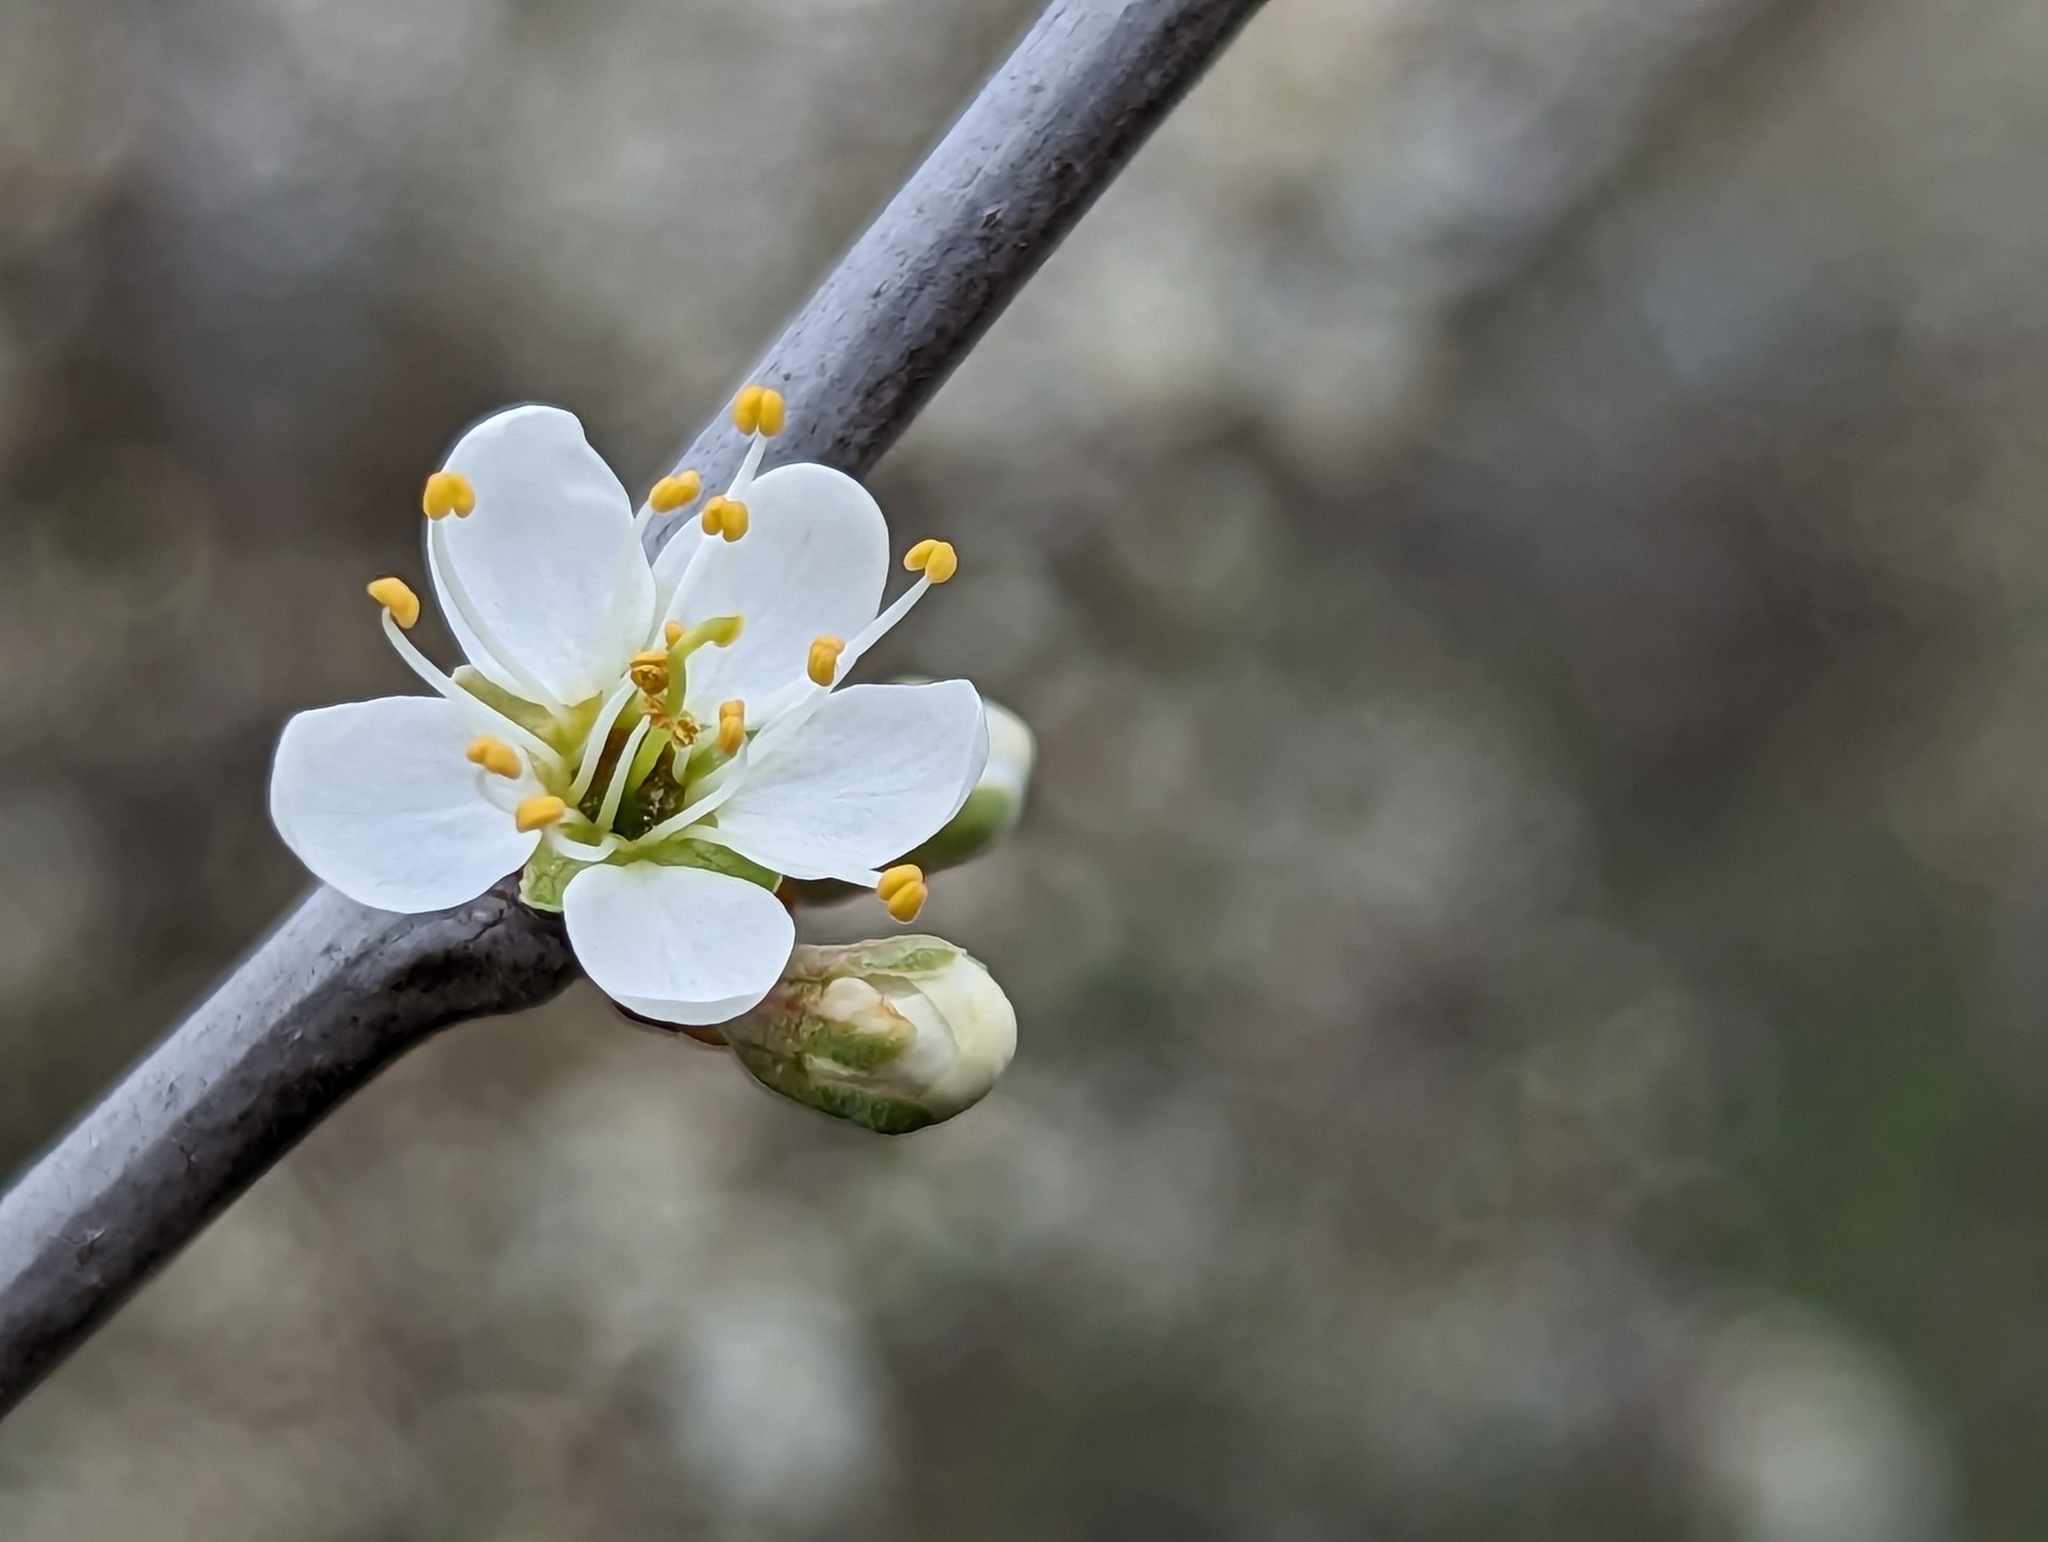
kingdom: Plantae
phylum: Tracheophyta
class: Magnoliopsida
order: Rosales
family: Rosaceae
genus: Prunus
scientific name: Prunus spinosa
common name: Blackthorn
